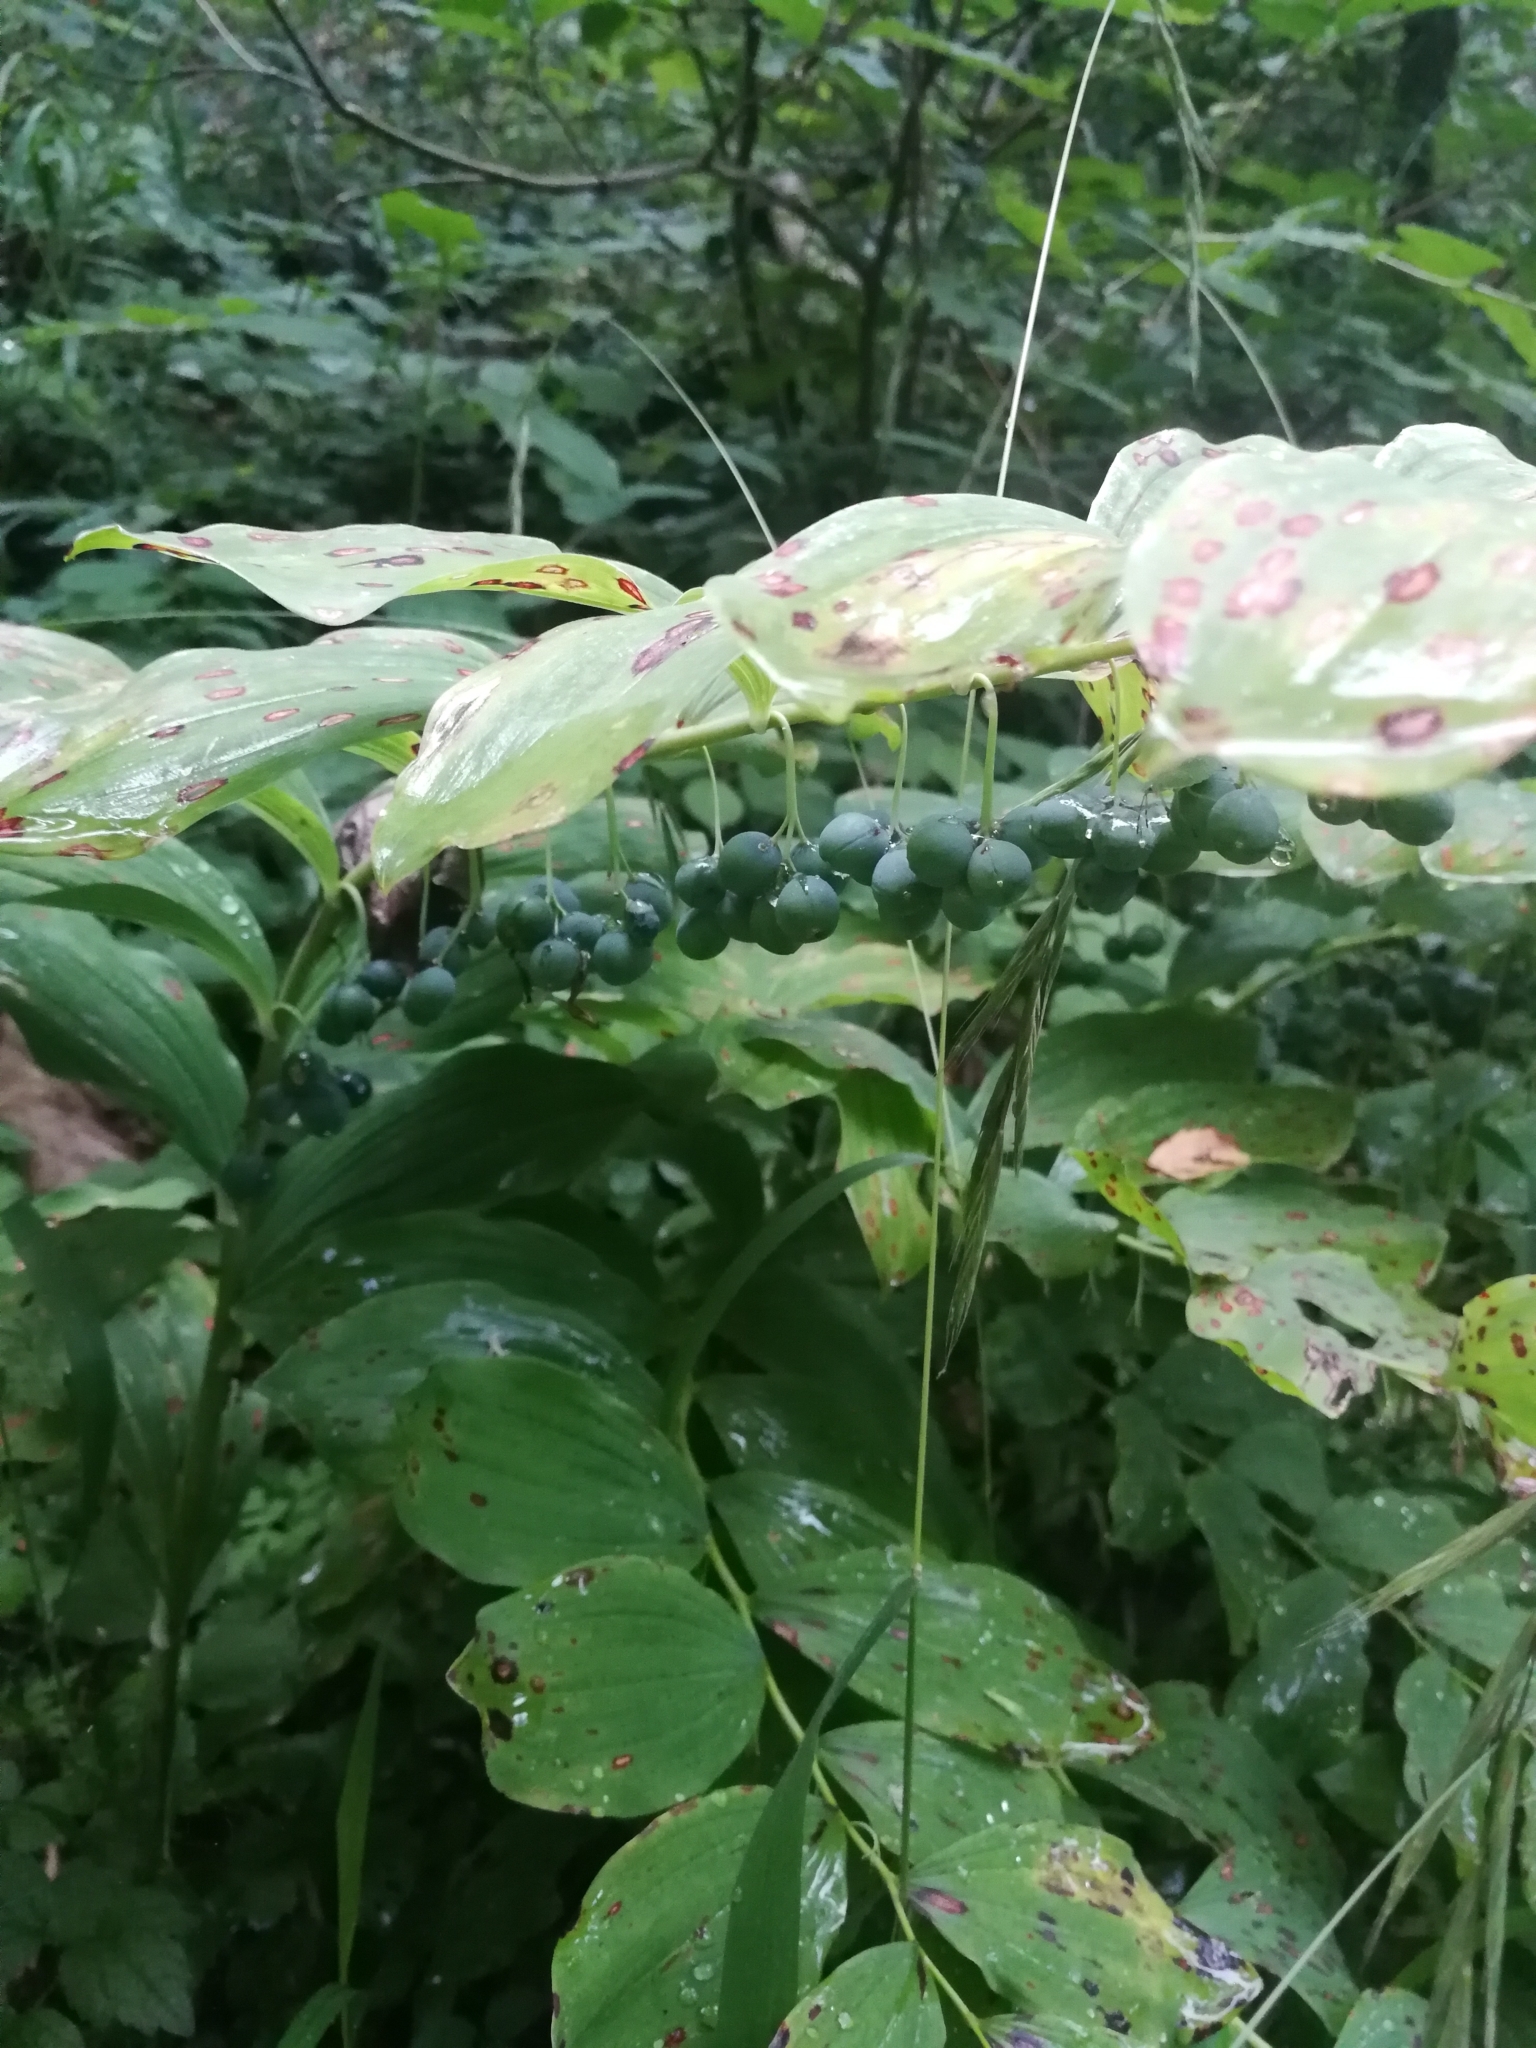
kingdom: Plantae
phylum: Tracheophyta
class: Liliopsida
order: Asparagales
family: Asparagaceae
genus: Polygonatum
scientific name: Polygonatum multiflorum
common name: Solomon's-seal
